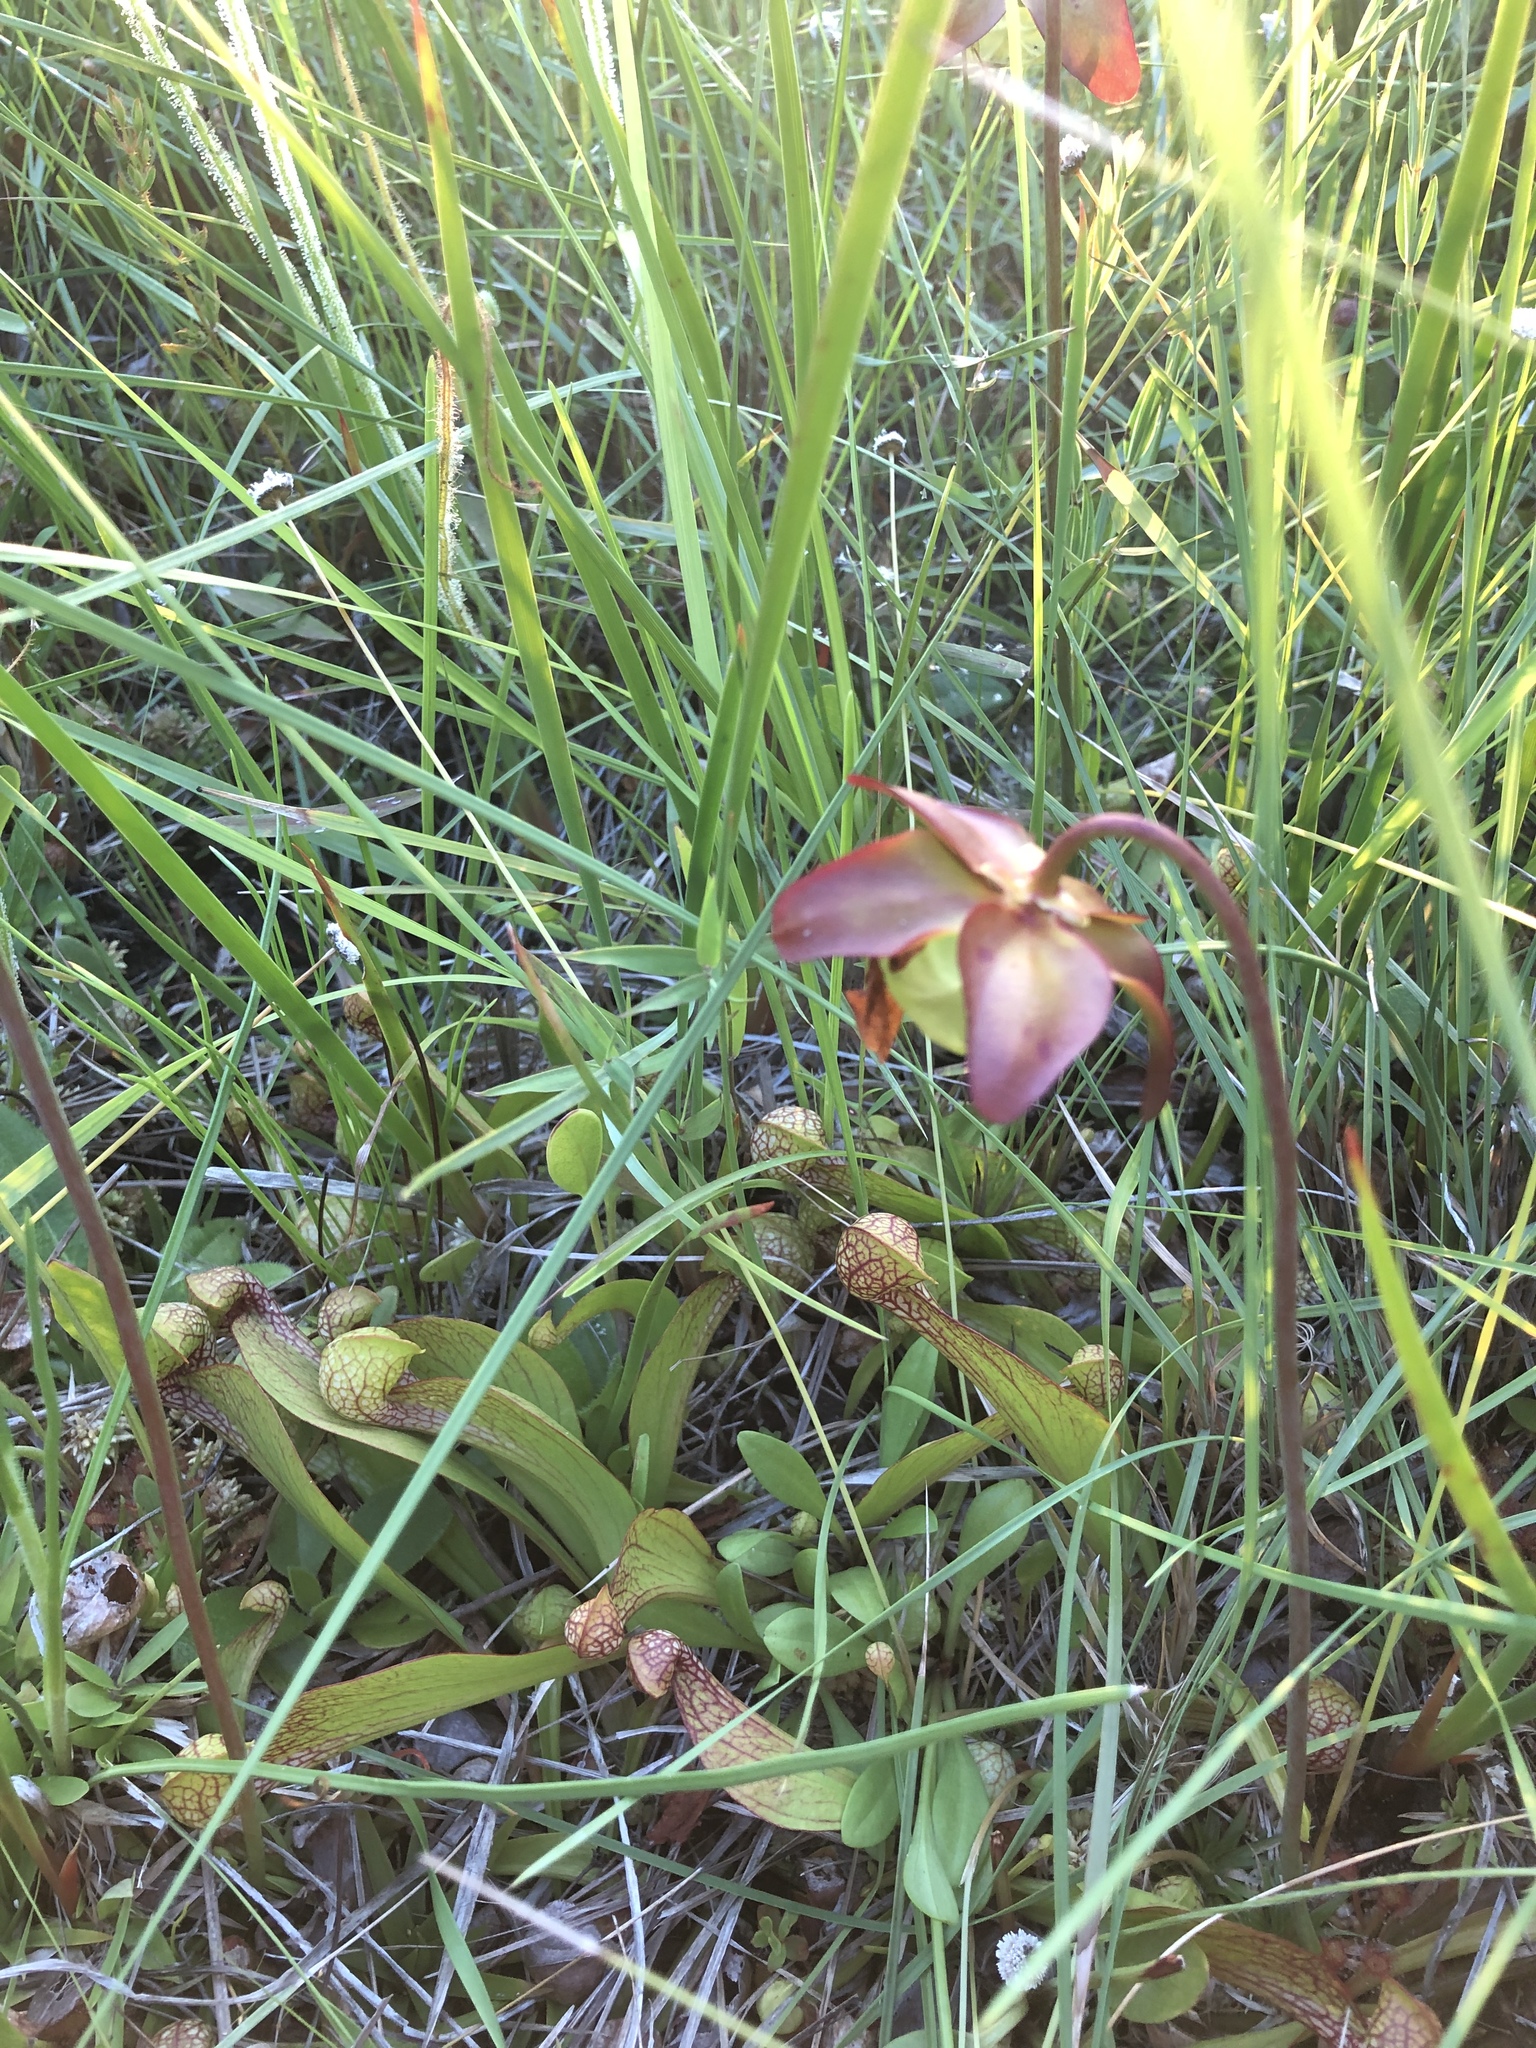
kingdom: Plantae
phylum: Tracheophyta
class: Magnoliopsida
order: Ericales
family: Sarraceniaceae
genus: Sarracenia
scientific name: Sarracenia psittacina
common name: Parrot pitcherplant
